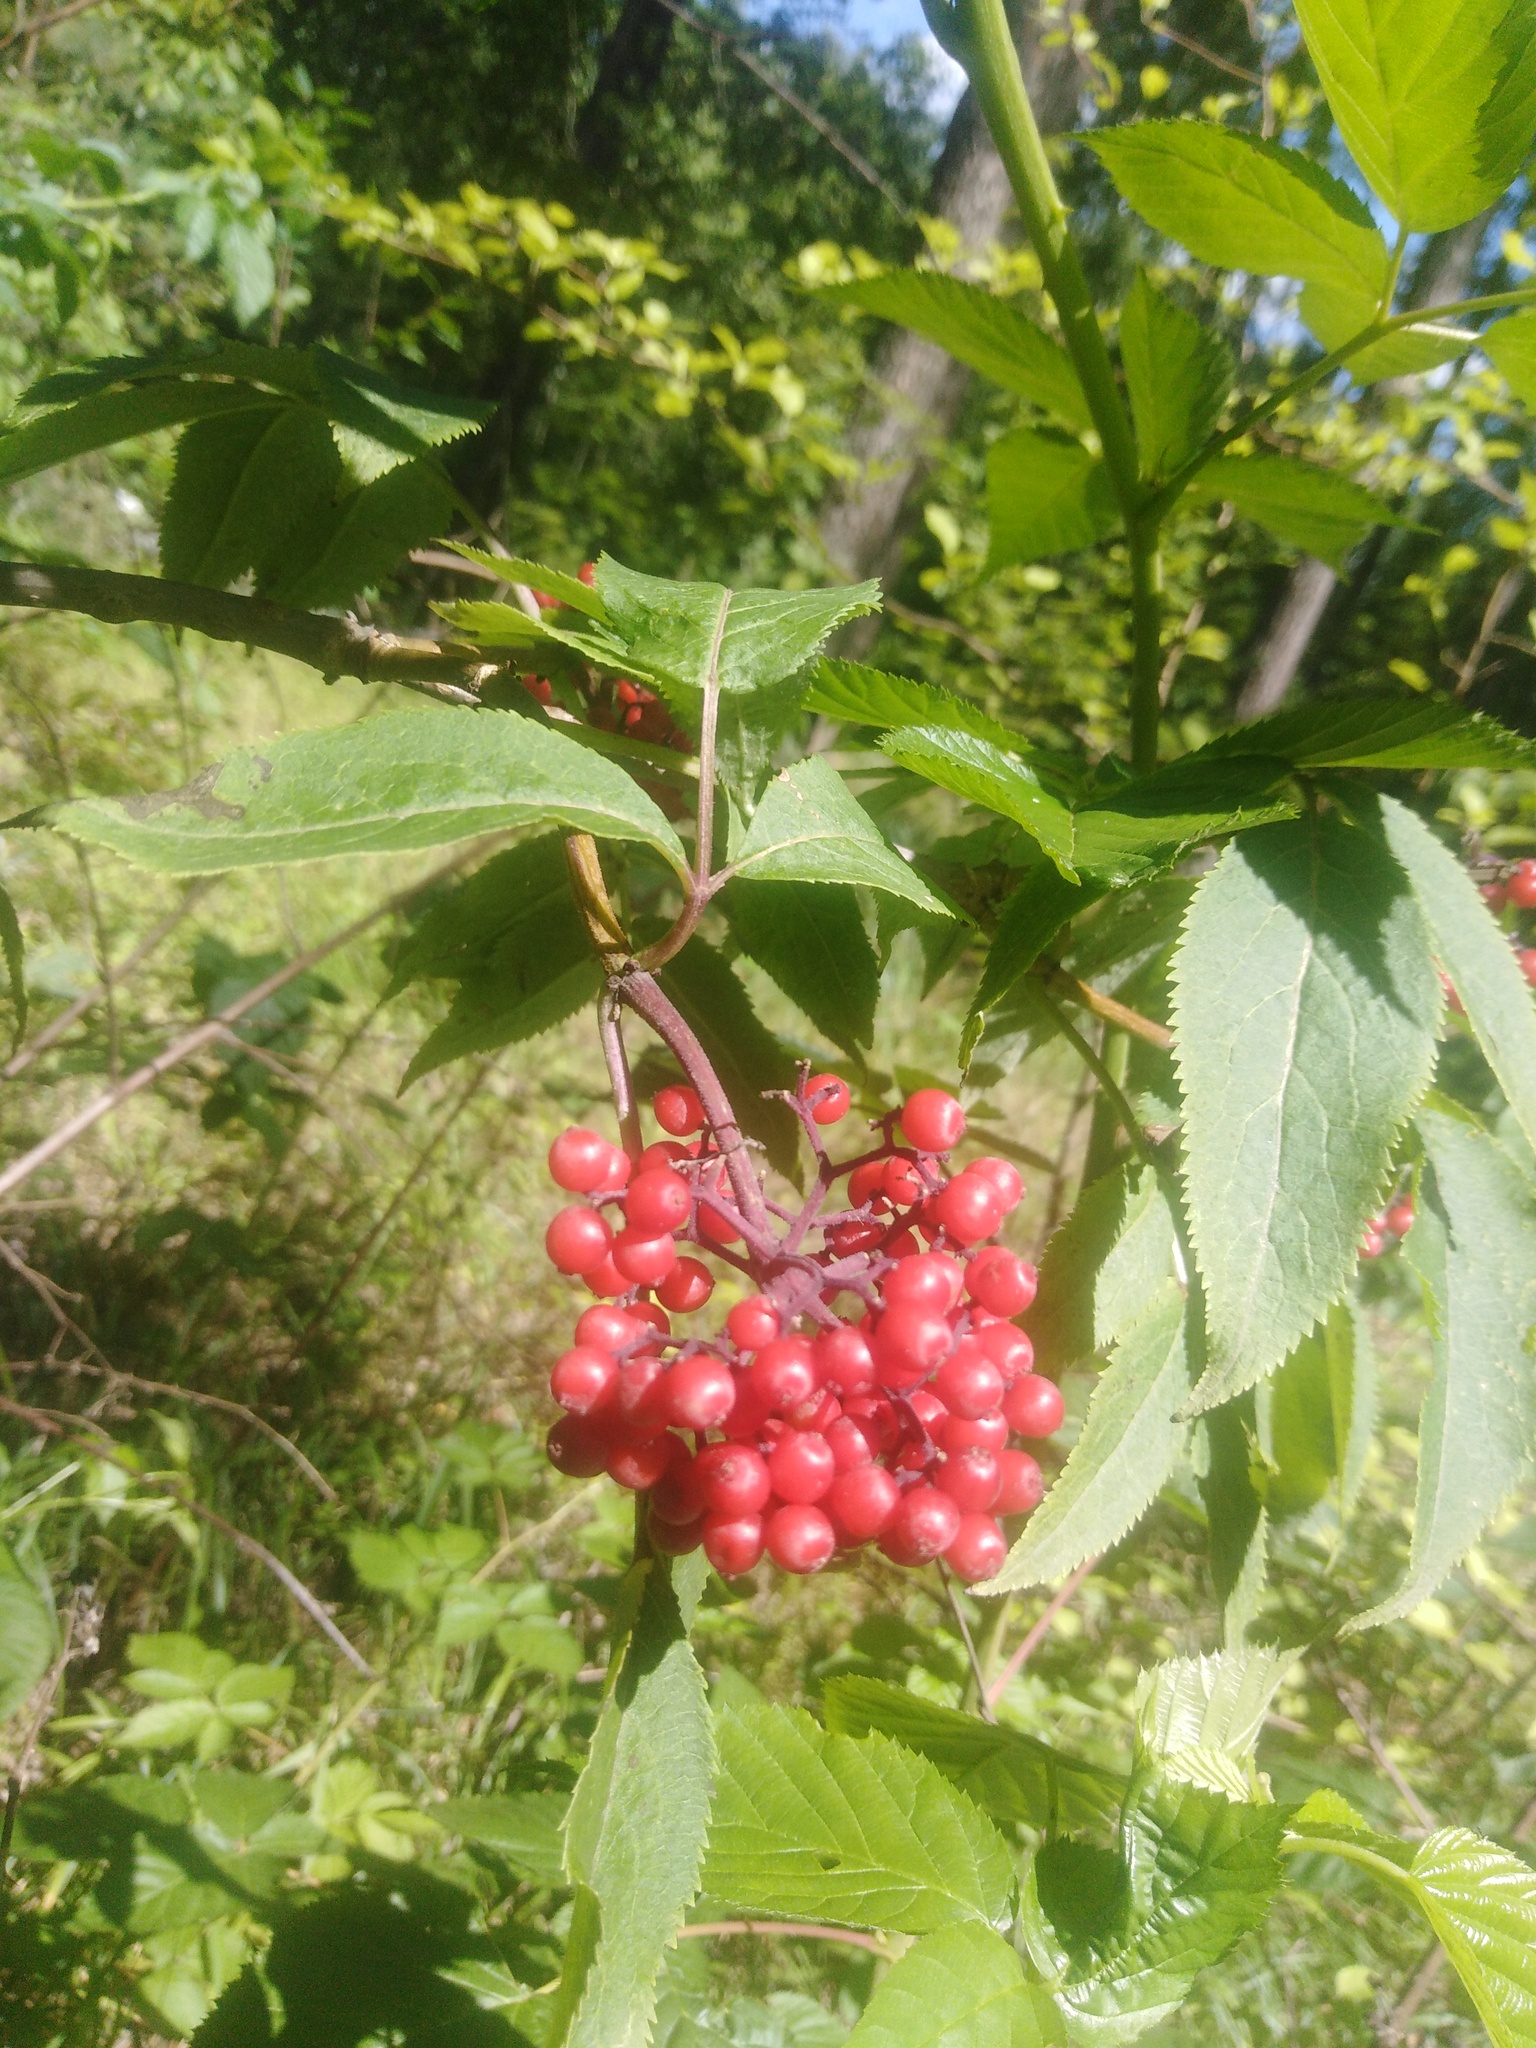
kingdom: Plantae
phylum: Tracheophyta
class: Magnoliopsida
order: Dipsacales
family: Viburnaceae
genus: Sambucus
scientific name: Sambucus racemosa
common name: Red-berried elder
